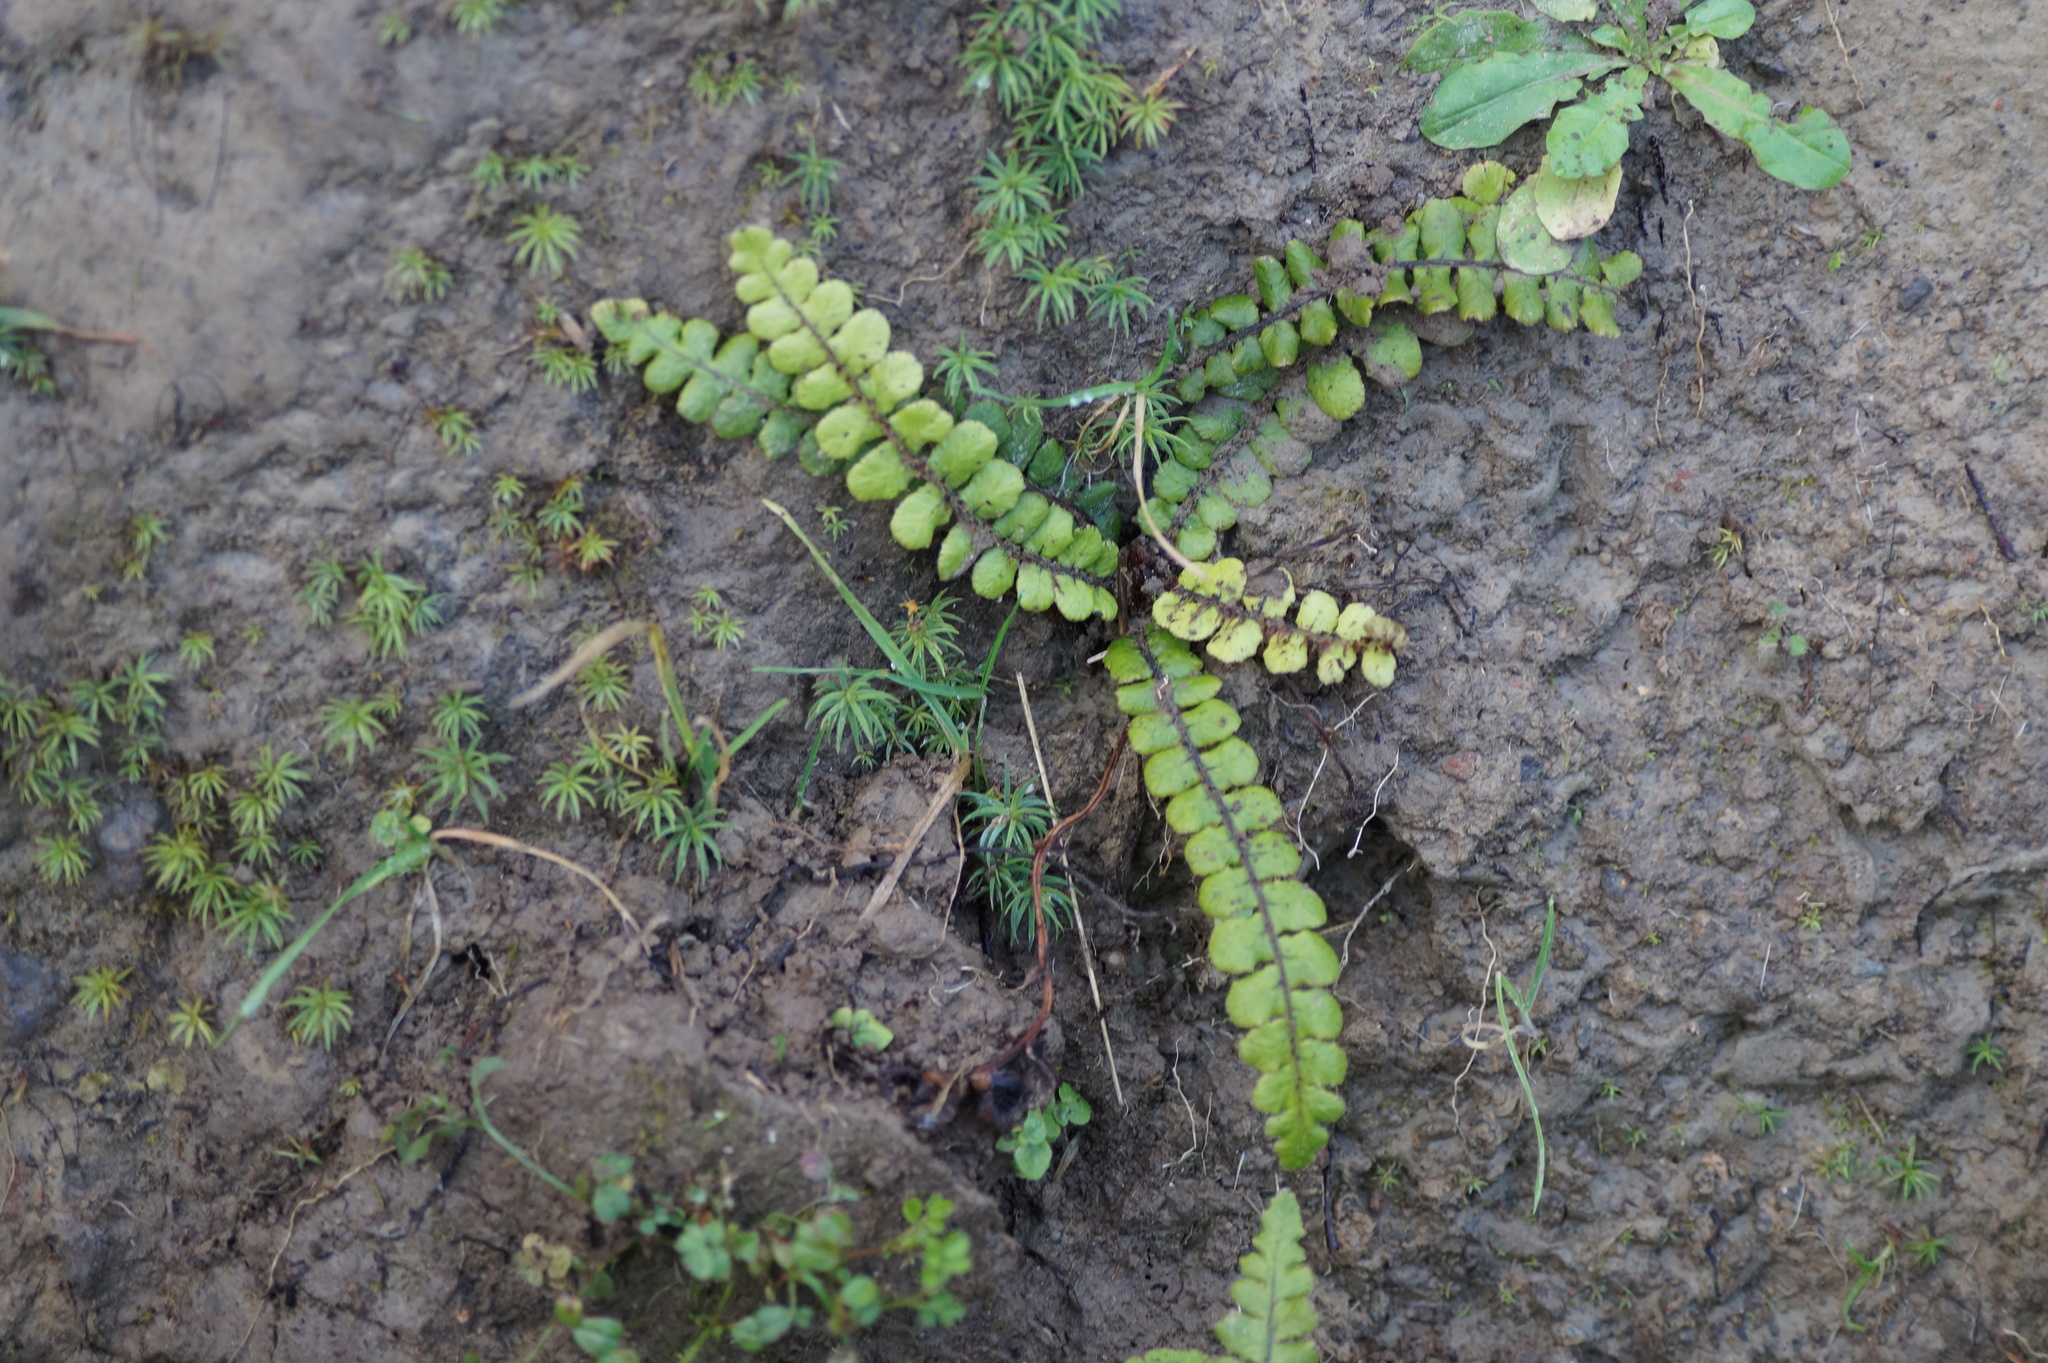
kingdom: Plantae
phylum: Tracheophyta
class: Polypodiopsida
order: Polypodiales
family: Blechnaceae
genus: Cranfillia
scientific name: Cranfillia fluviatilis
